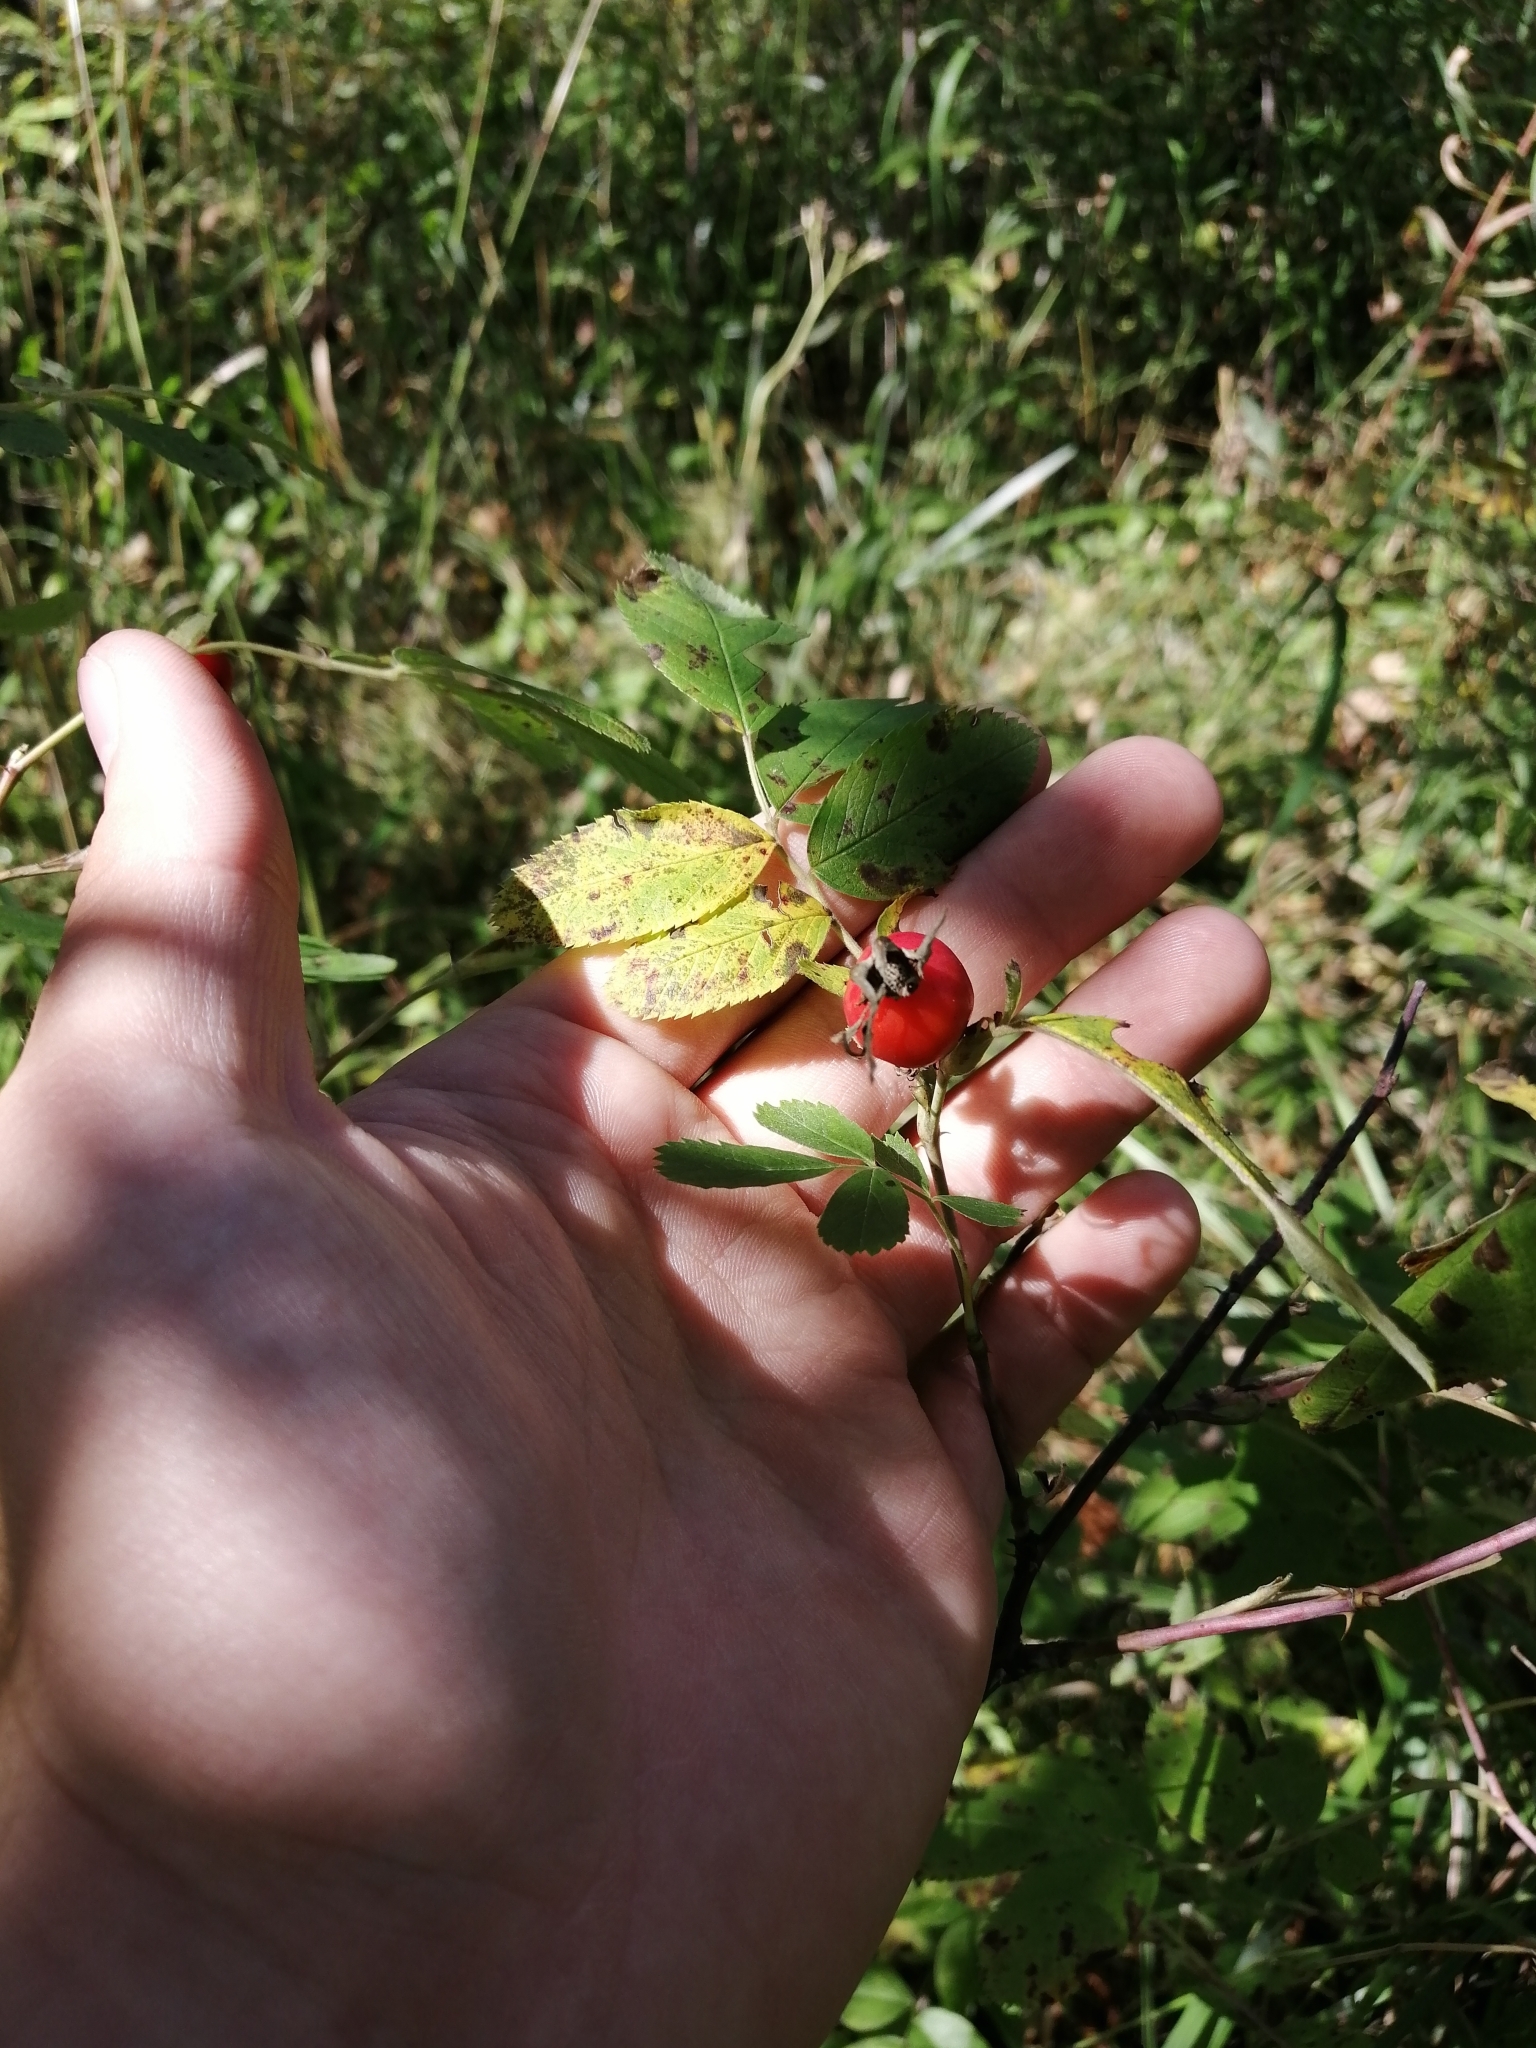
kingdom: Plantae
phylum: Tracheophyta
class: Magnoliopsida
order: Rosales
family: Rosaceae
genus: Rosa
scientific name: Rosa majalis
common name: Cinnamon rose
